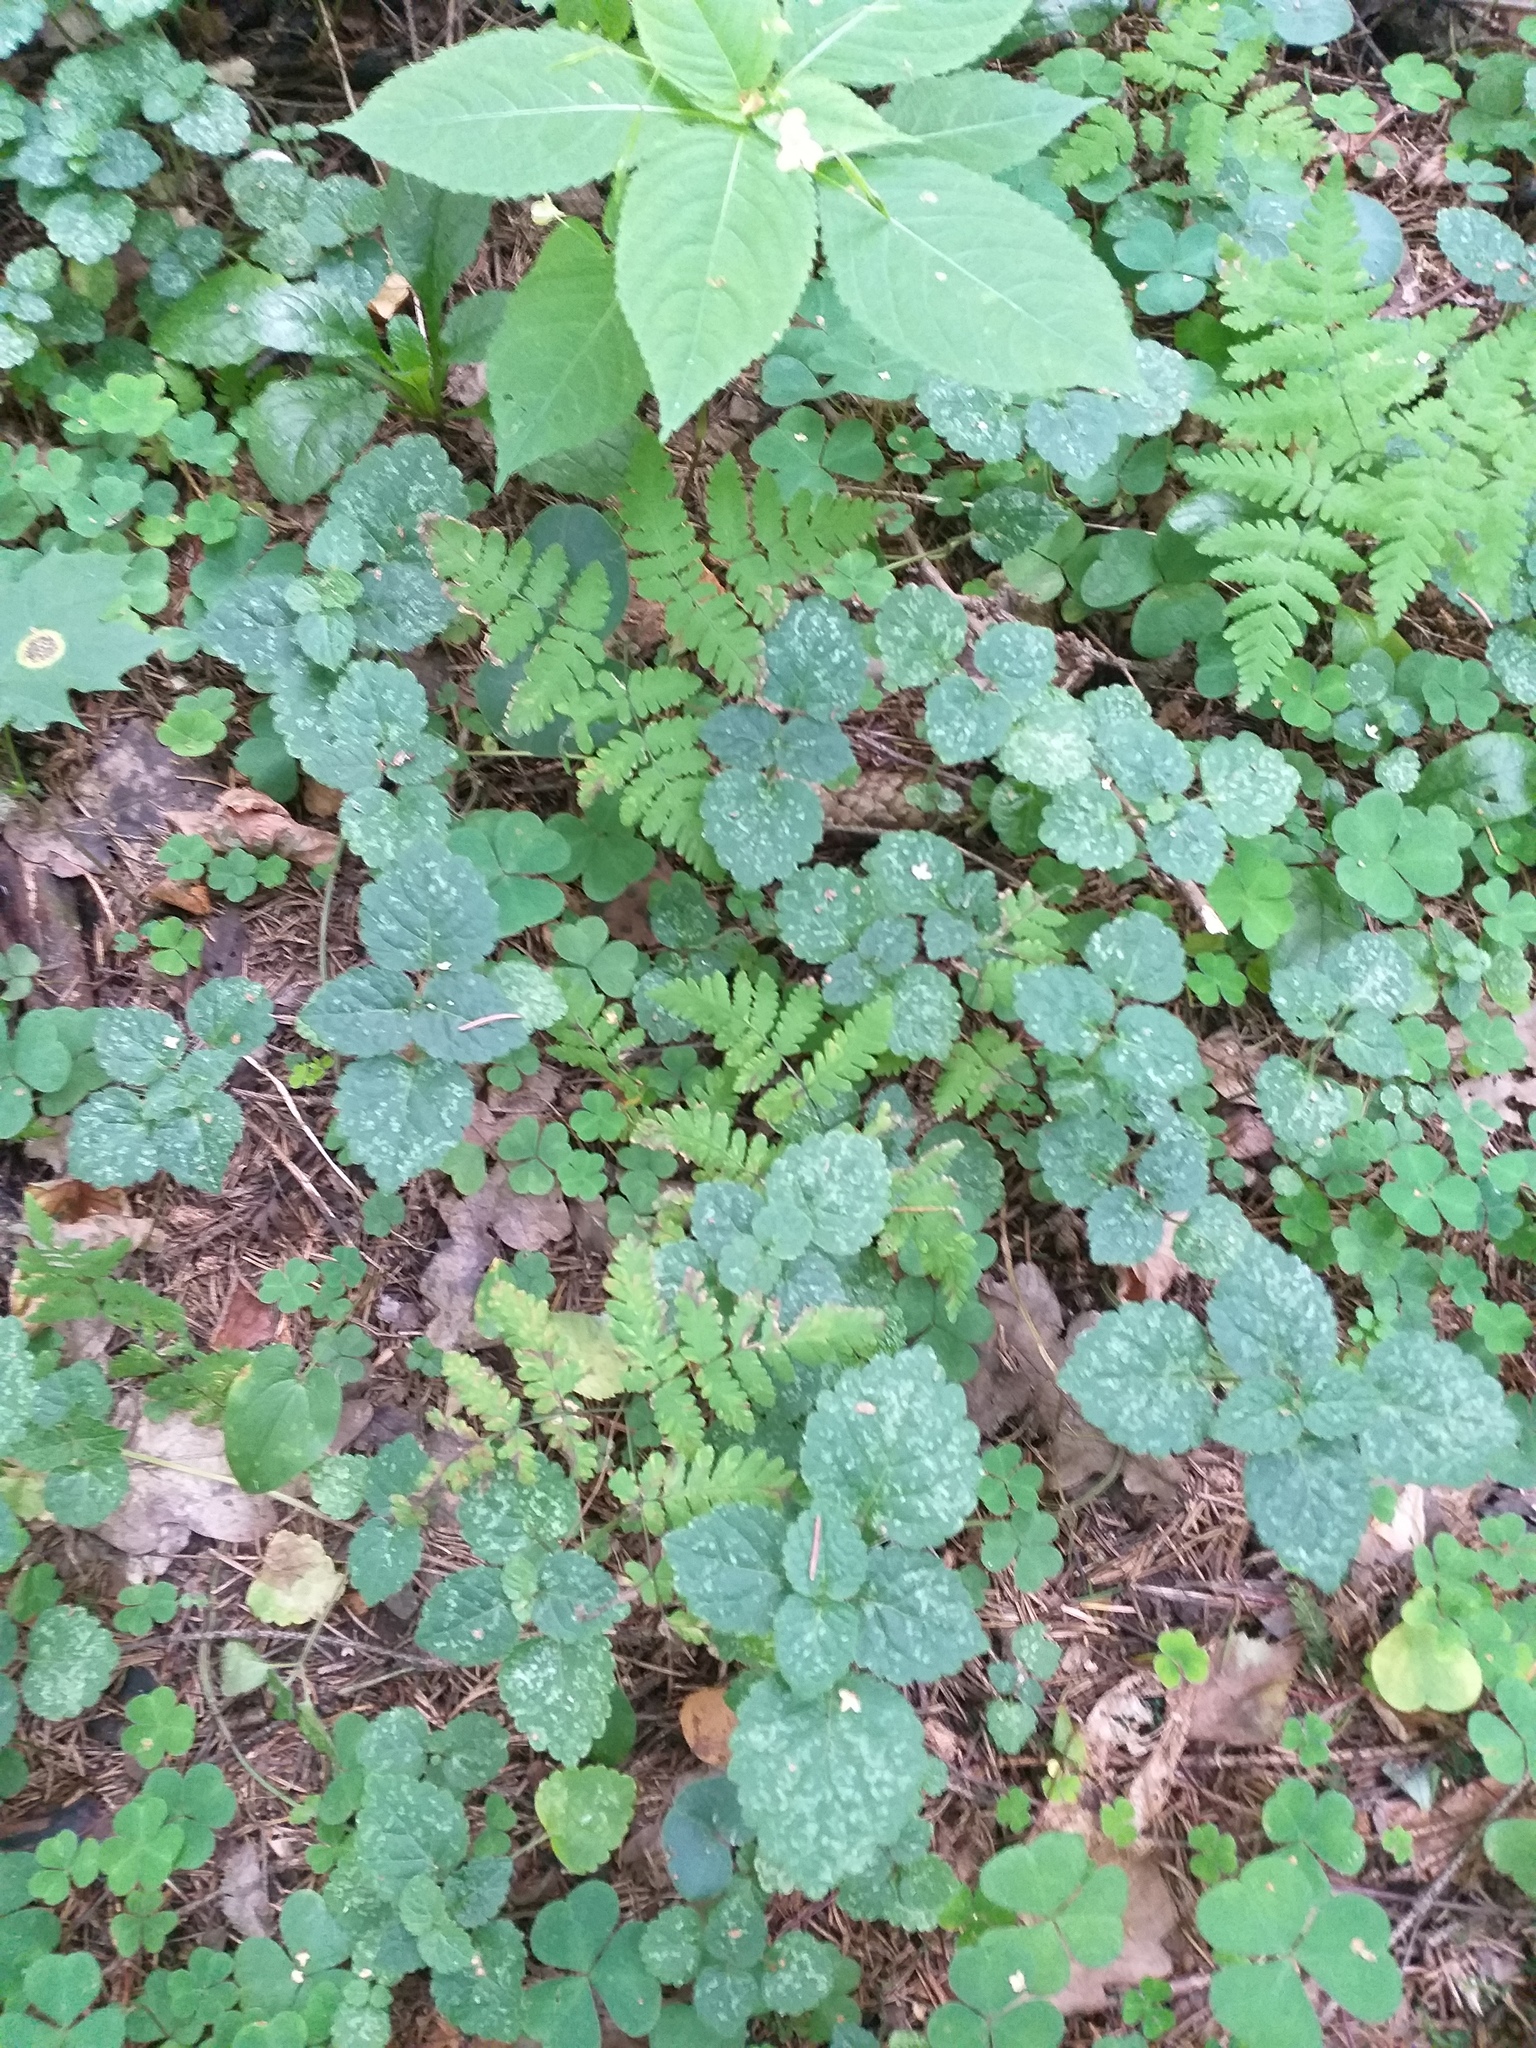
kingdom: Plantae
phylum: Tracheophyta
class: Polypodiopsida
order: Polypodiales
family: Cystopteridaceae
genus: Gymnocarpium
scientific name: Gymnocarpium dryopteris
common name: Oak fern
